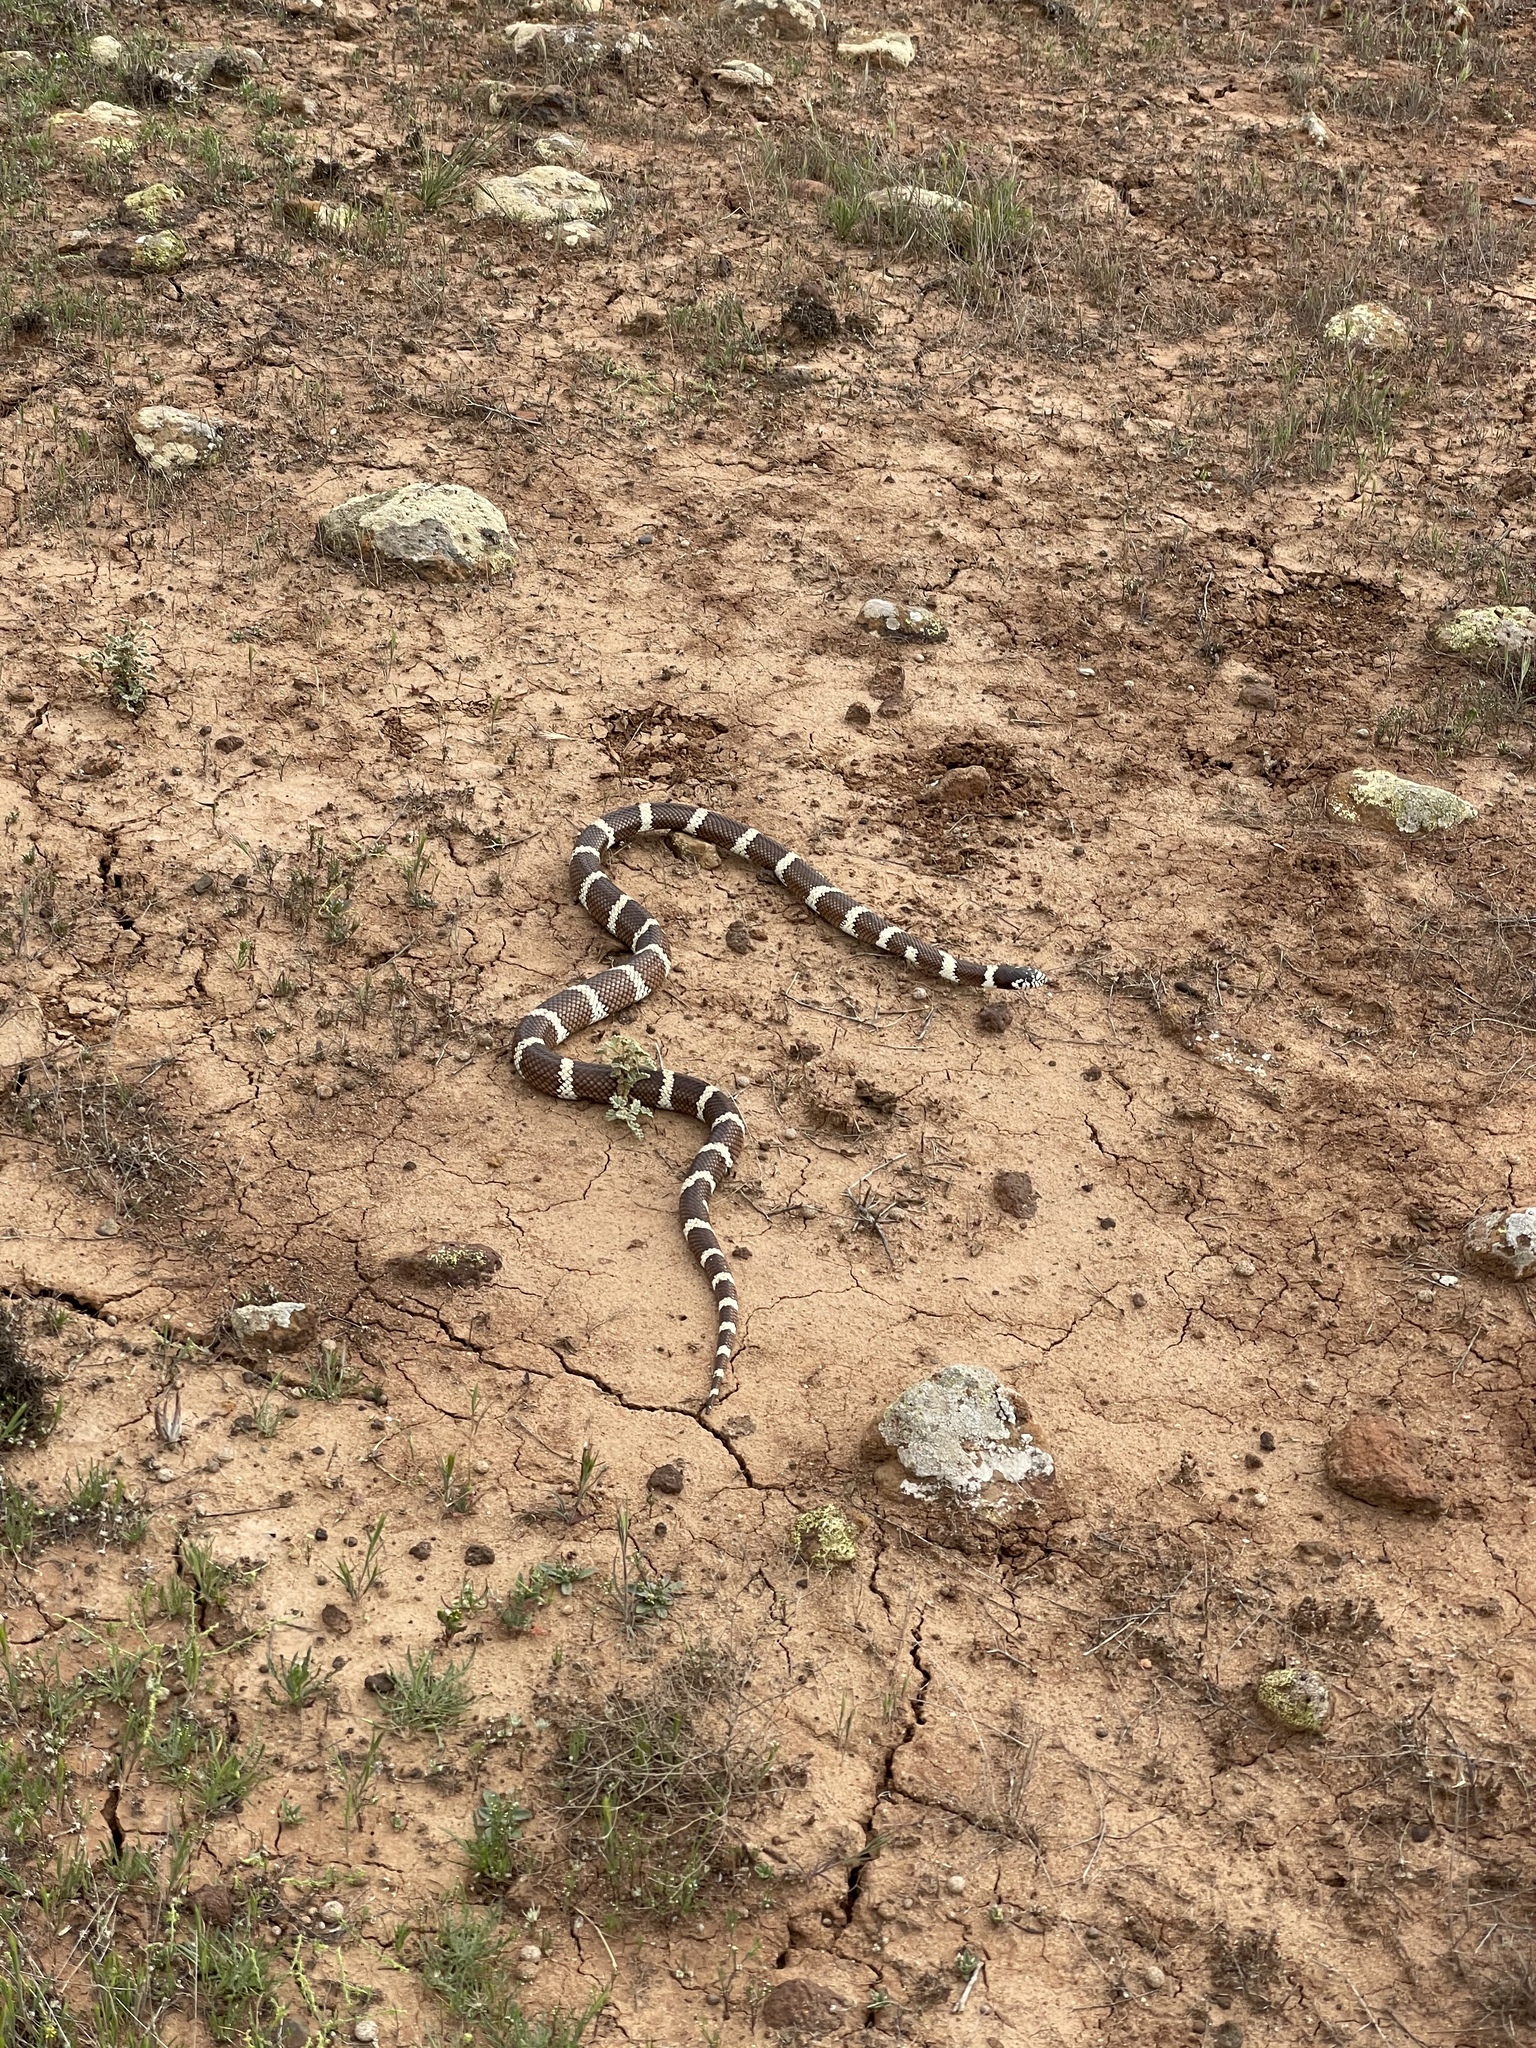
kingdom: Animalia
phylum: Chordata
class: Squamata
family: Colubridae
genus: Lampropeltis
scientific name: Lampropeltis californiae
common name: California kingsnake
